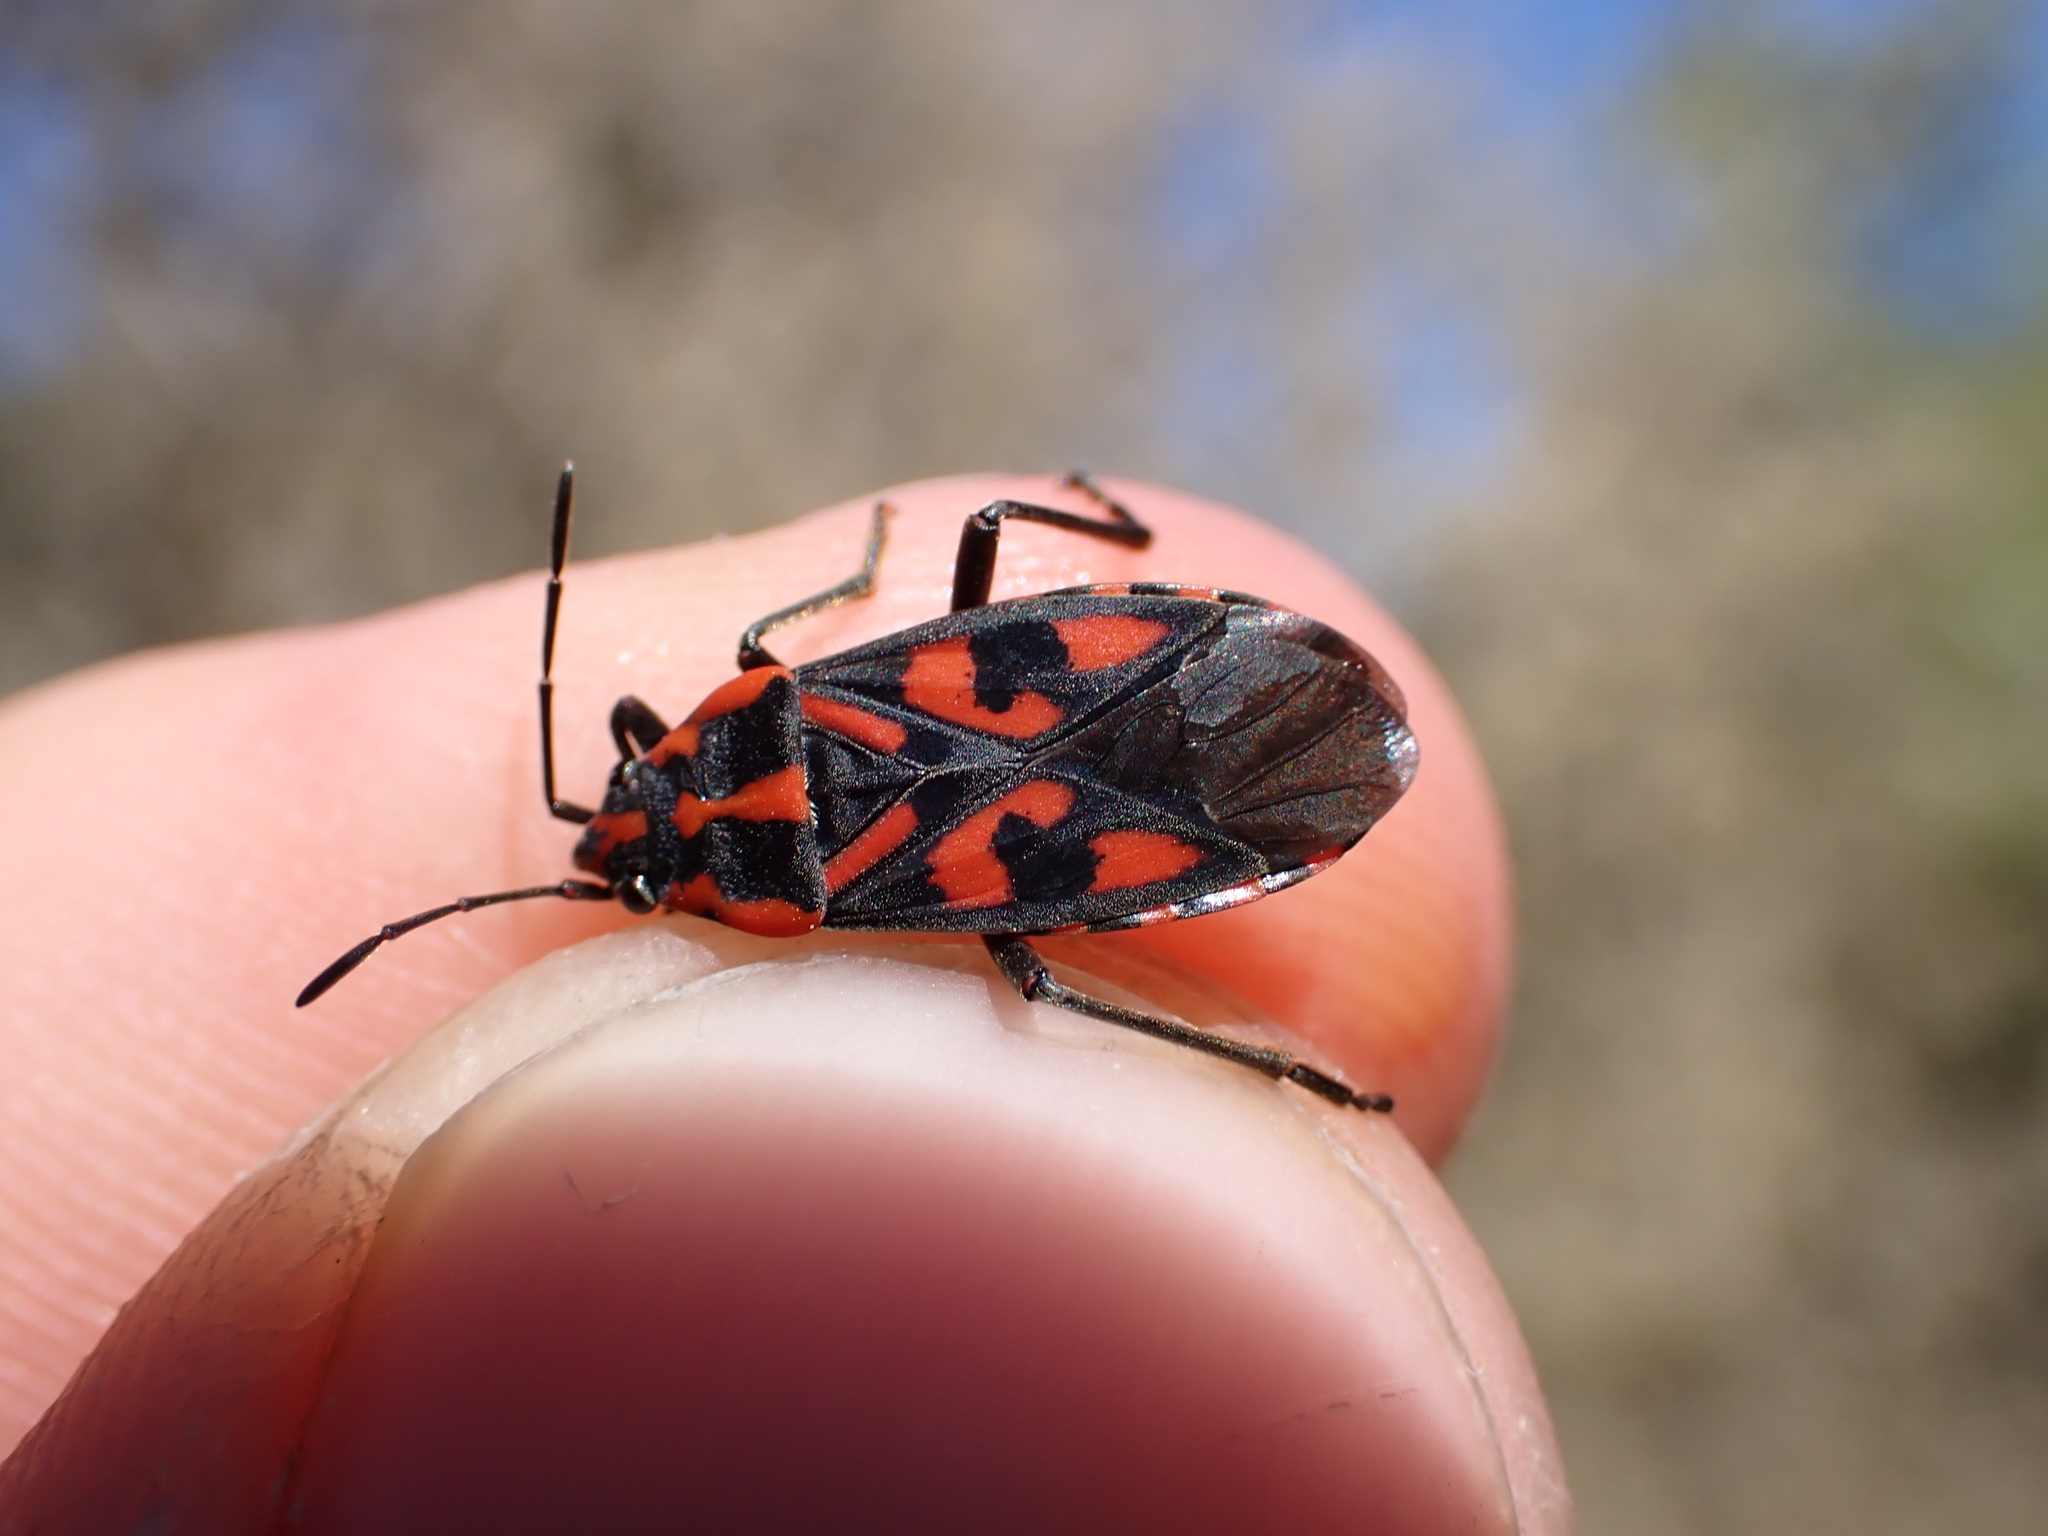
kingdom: Animalia
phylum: Arthropoda
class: Insecta
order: Hemiptera
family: Lygaeidae
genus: Spilostethus
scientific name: Spilostethus saxatilis
